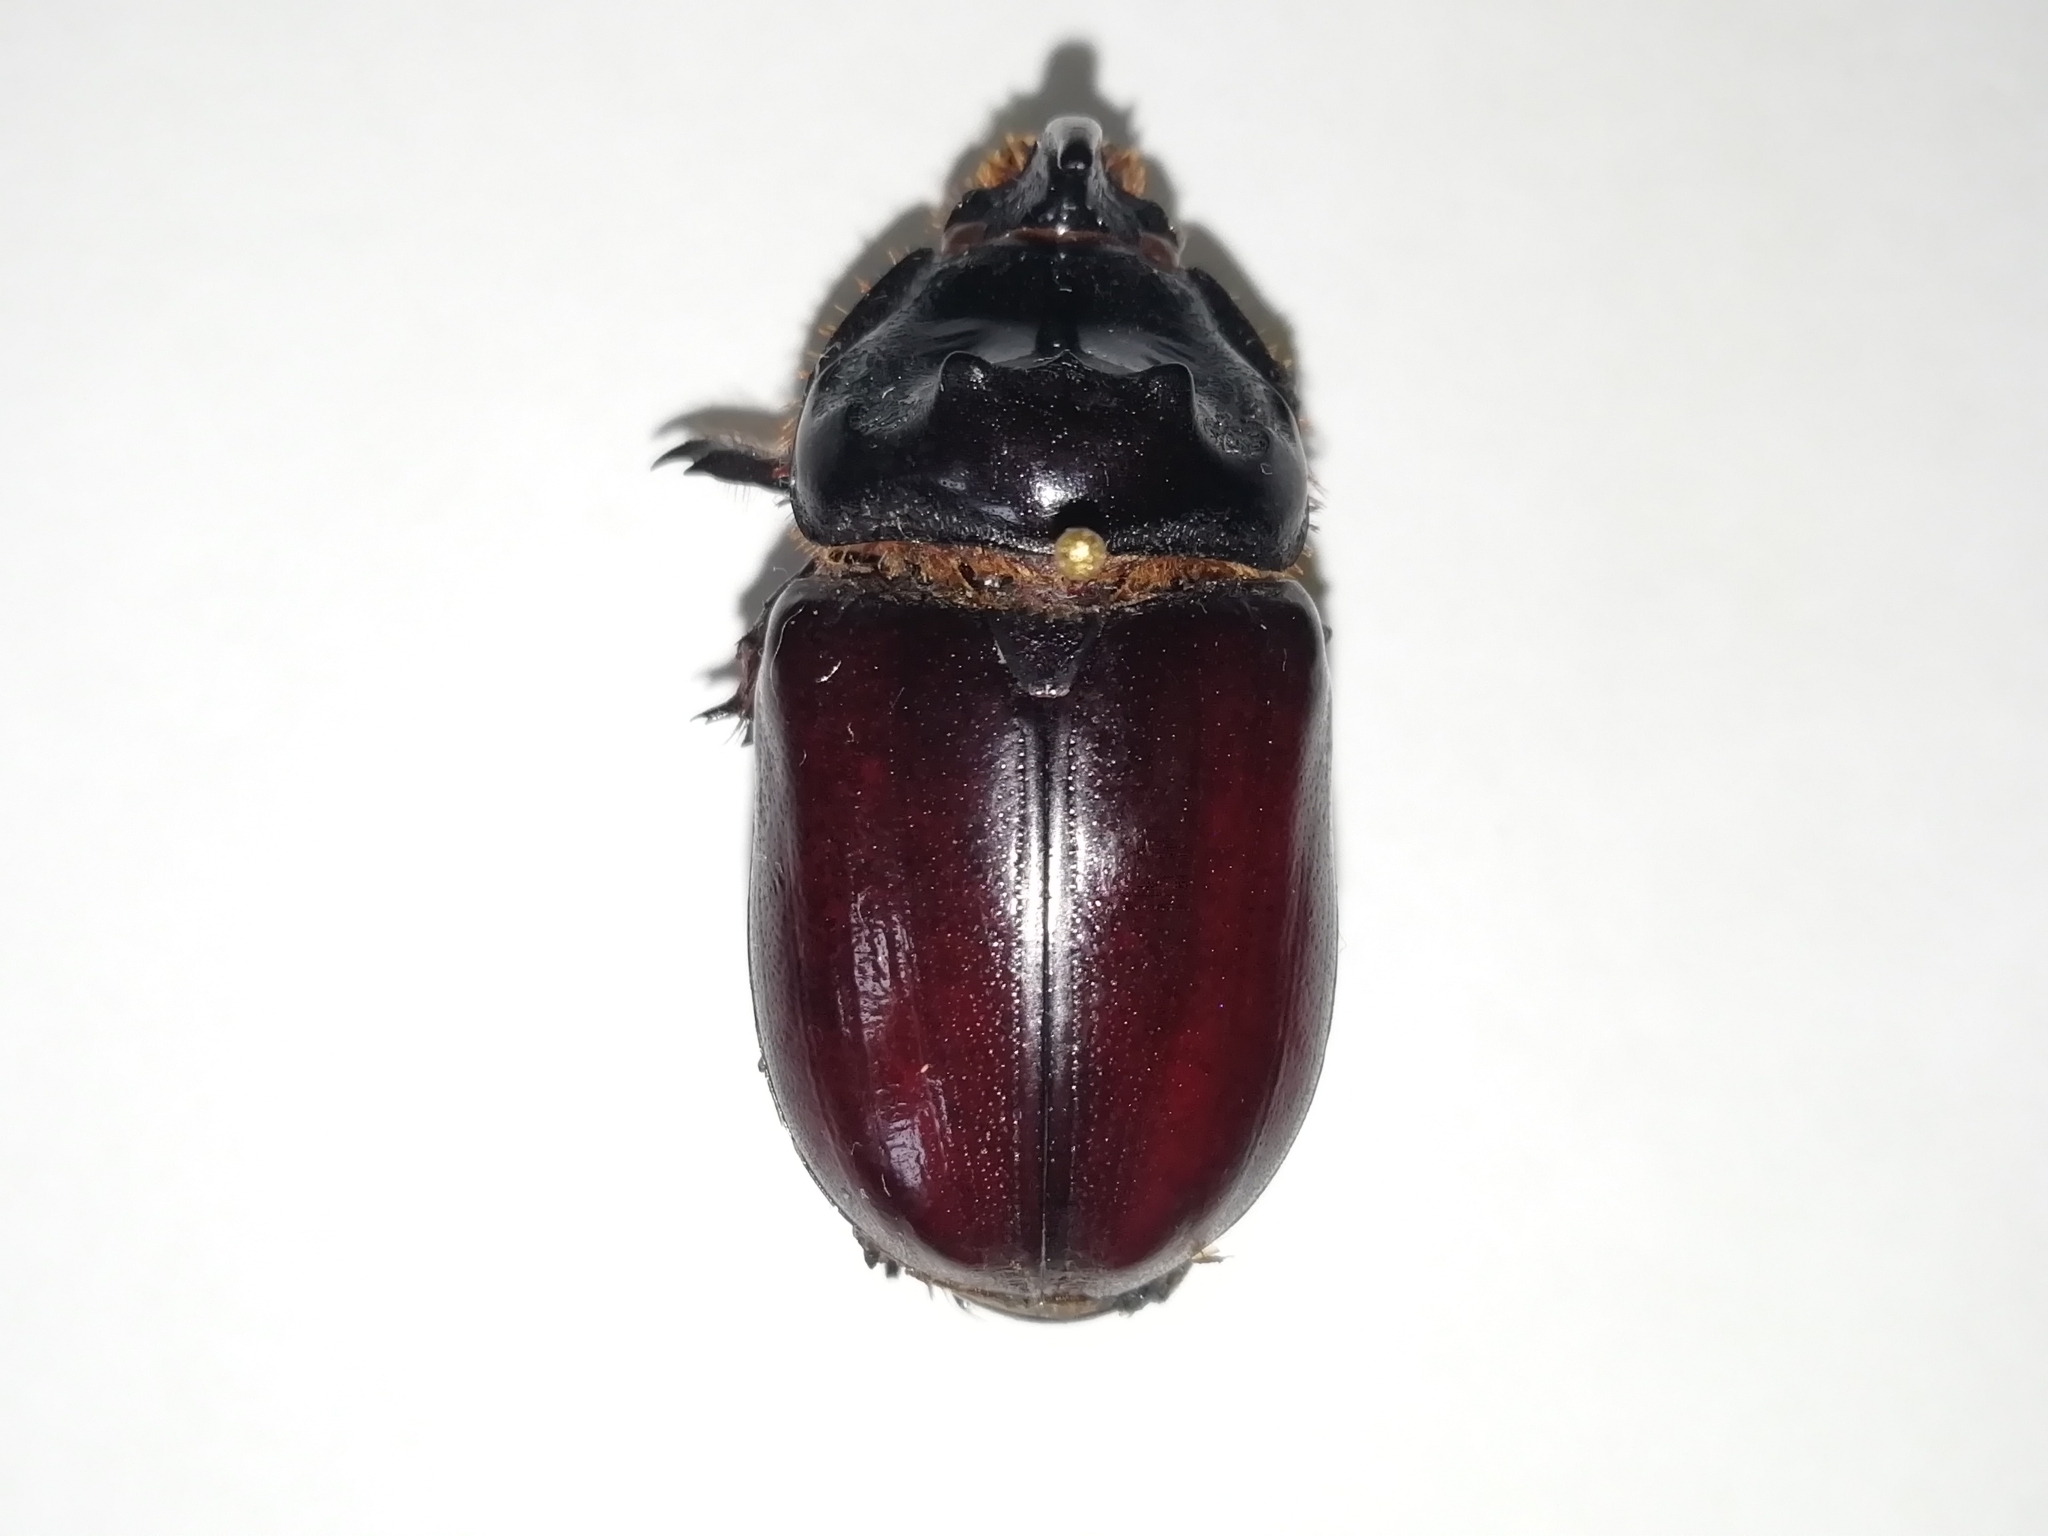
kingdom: Animalia
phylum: Arthropoda
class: Insecta
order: Coleoptera
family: Scarabaeidae
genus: Oryctes
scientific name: Oryctes nasicornis
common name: European rhinoceros beetle
